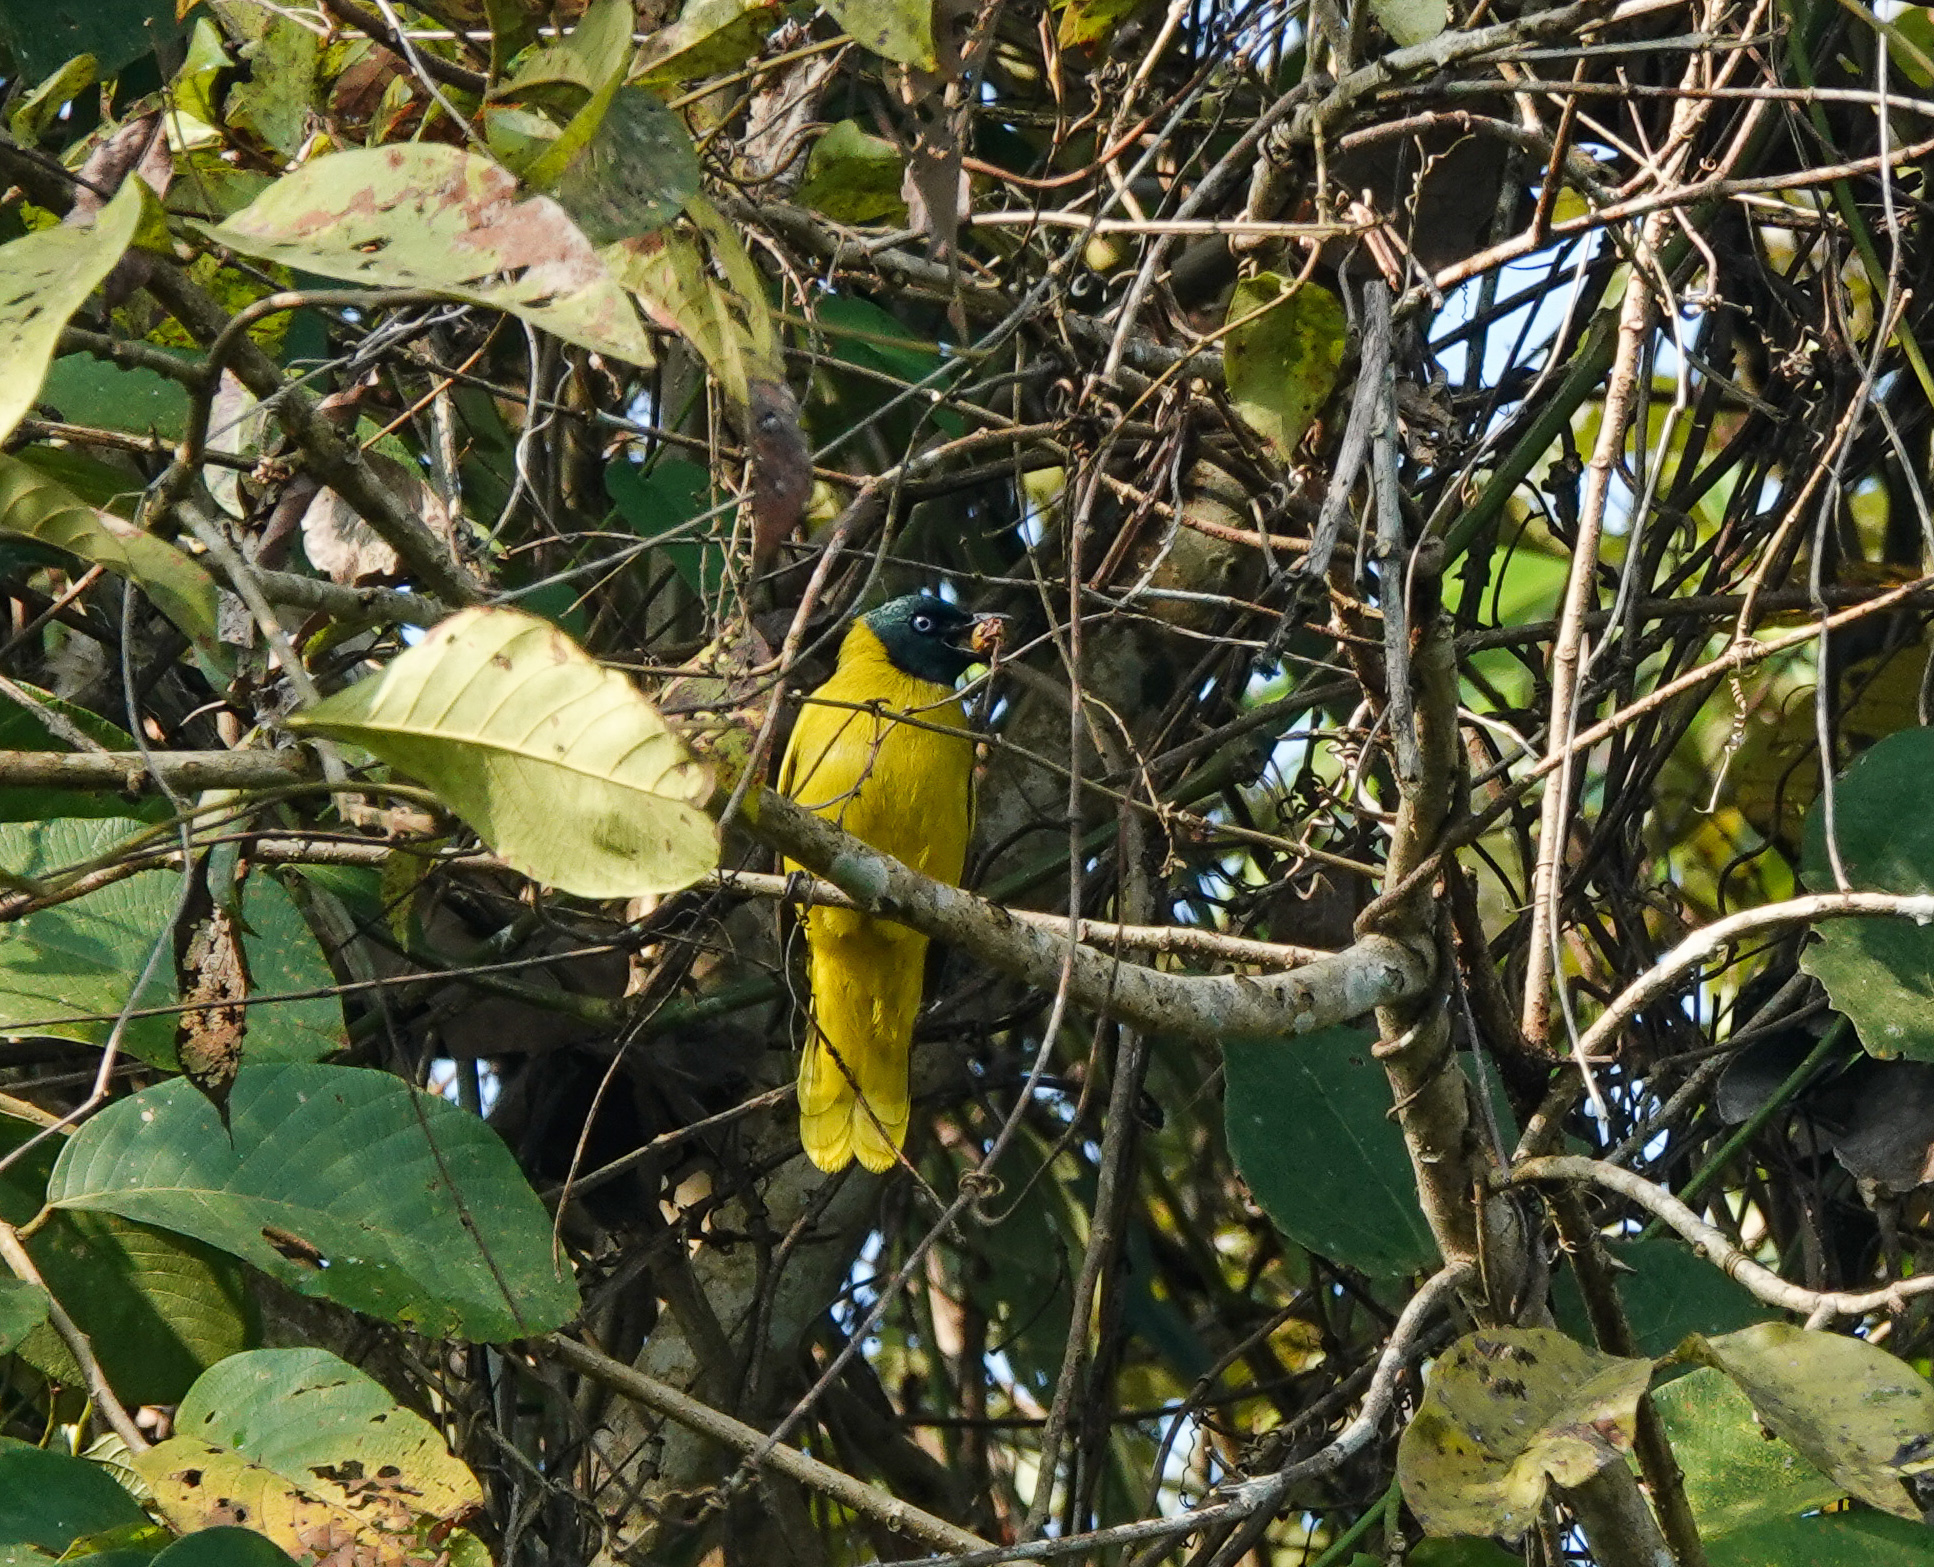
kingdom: Animalia
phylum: Chordata
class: Aves
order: Passeriformes
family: Pycnonotidae
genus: Microtarsus
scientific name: Microtarsus
